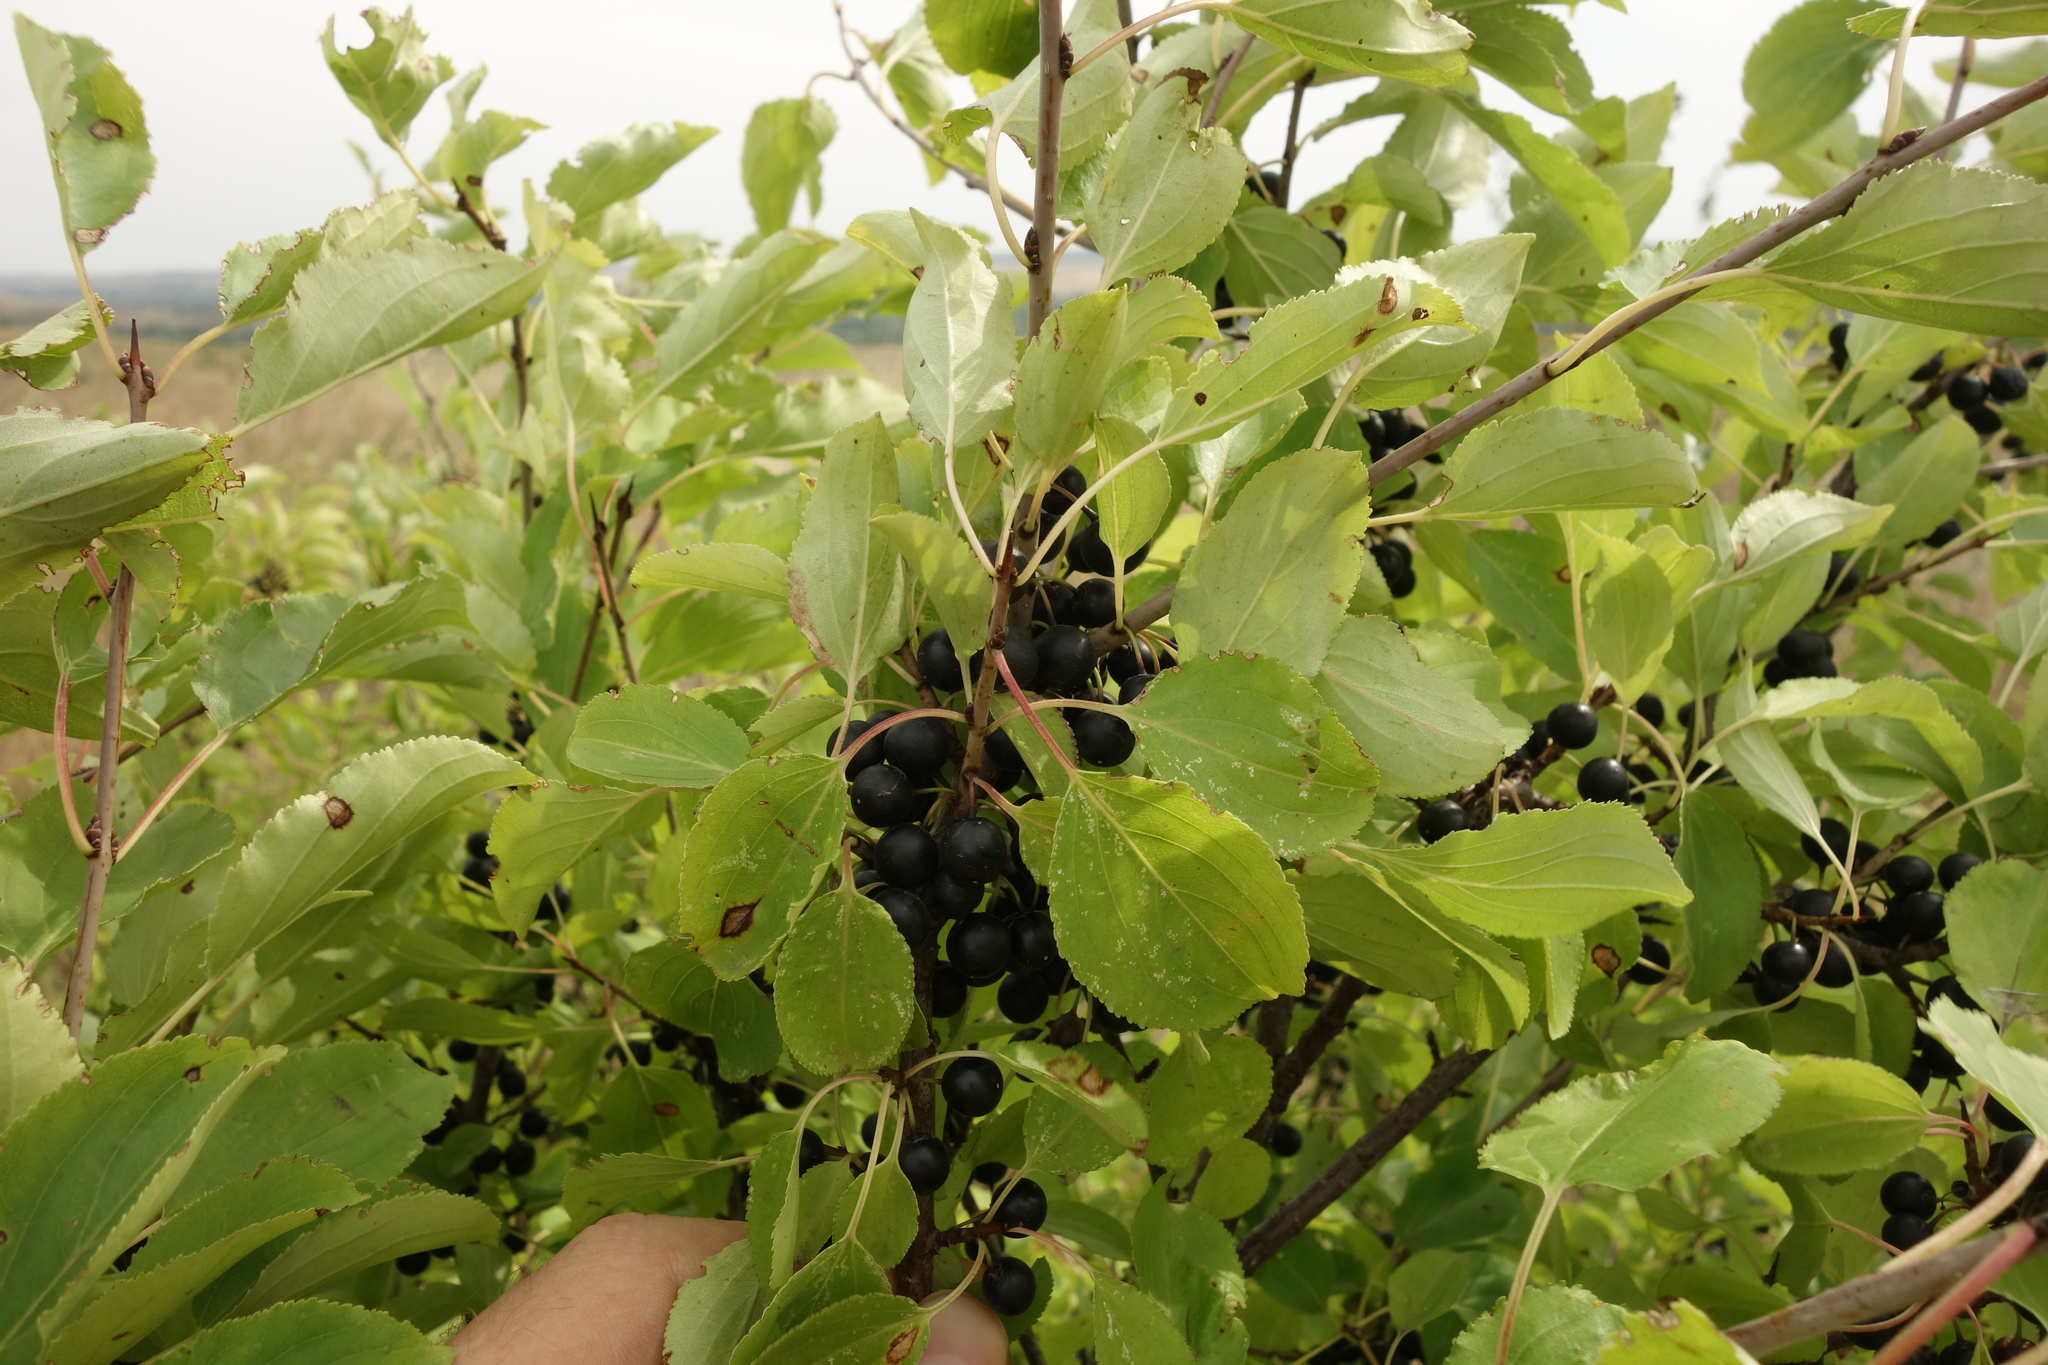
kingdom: Plantae
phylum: Tracheophyta
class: Magnoliopsida
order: Rosales
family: Rhamnaceae
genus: Rhamnus
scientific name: Rhamnus cathartica
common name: Common buckthorn
